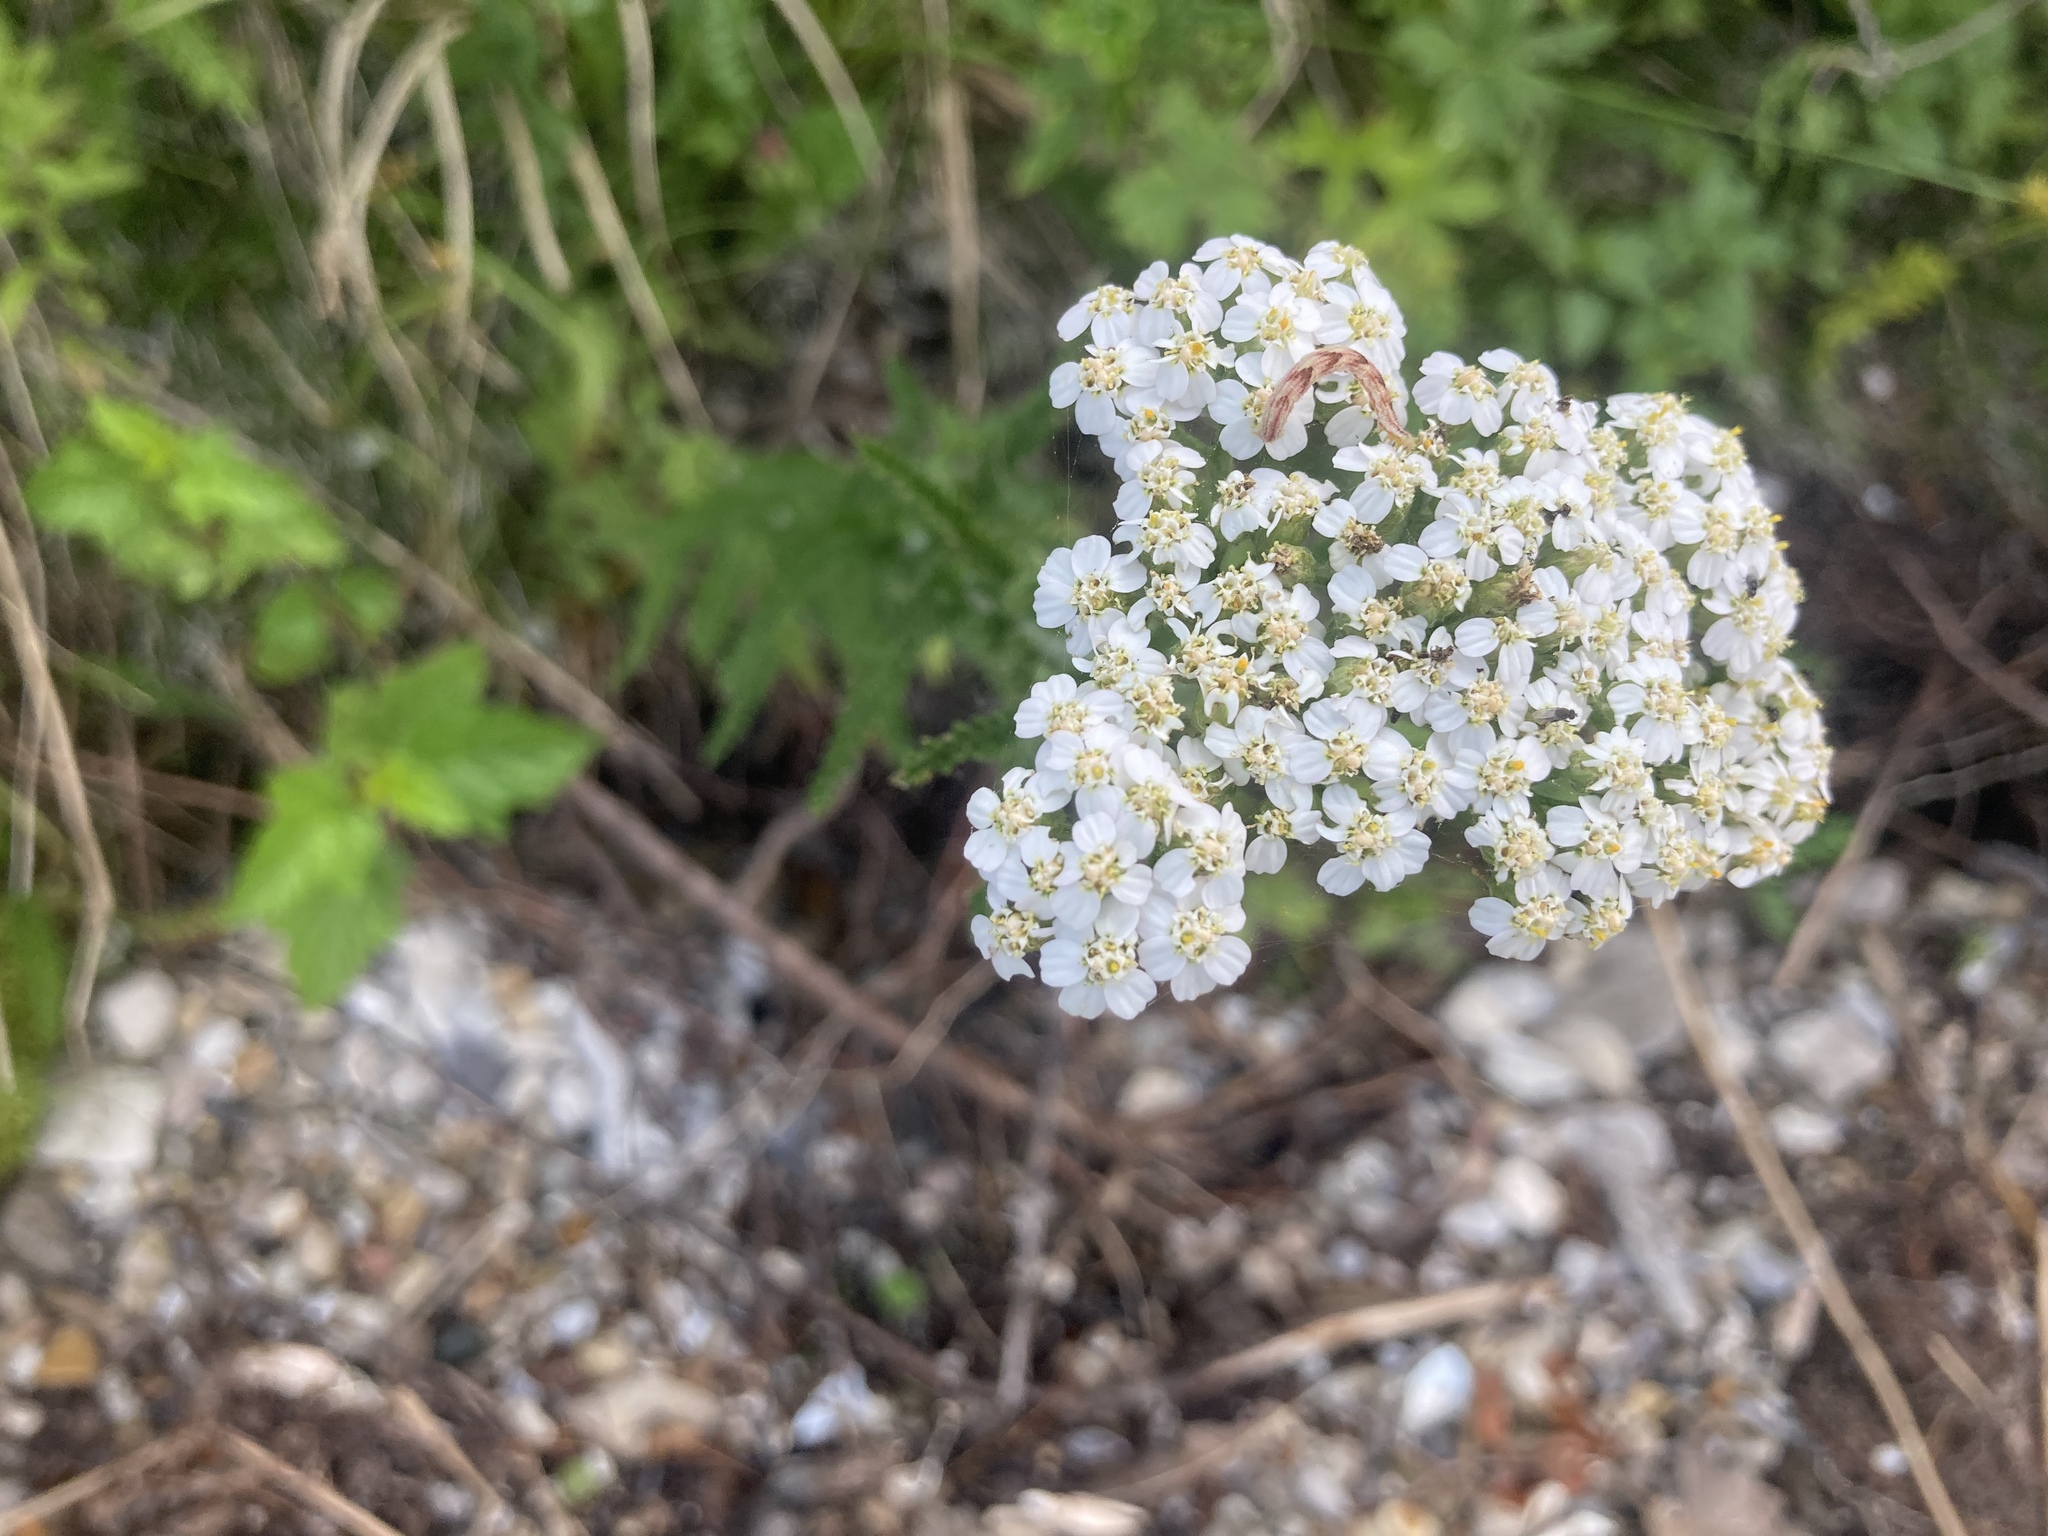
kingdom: Plantae
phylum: Tracheophyta
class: Magnoliopsida
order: Asterales
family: Asteraceae
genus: Achillea
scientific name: Achillea millefolium
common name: Yarrow
